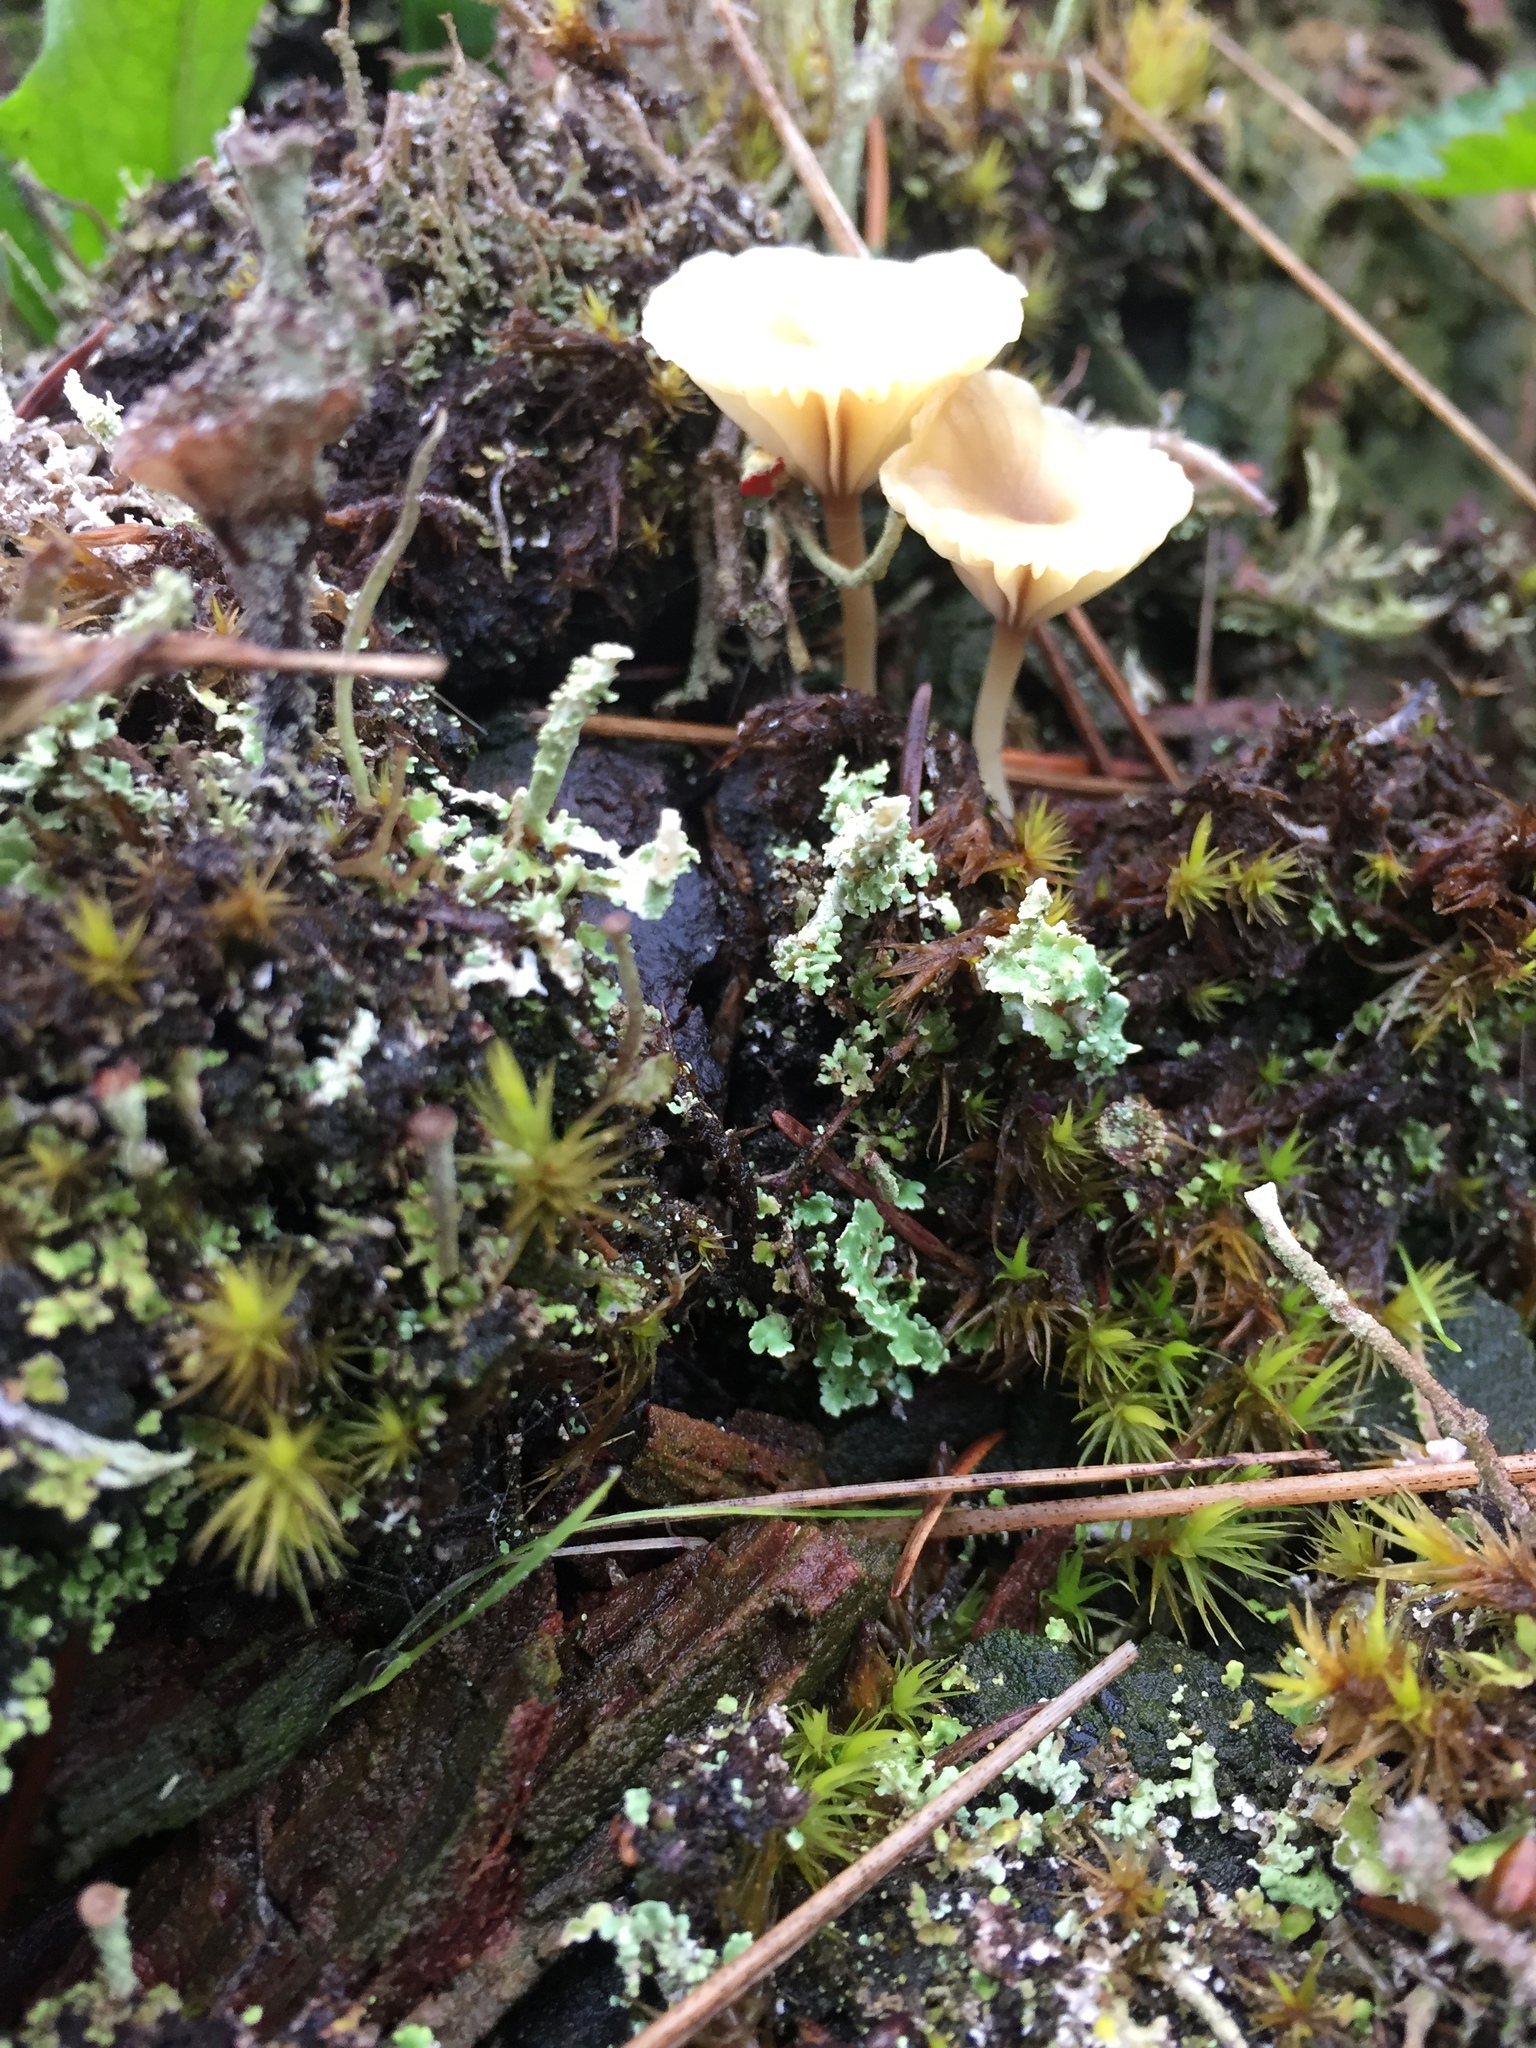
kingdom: Fungi
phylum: Basidiomycota
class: Agaricomycetes
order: Agaricales
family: Hygrophoraceae
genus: Lichenomphalia
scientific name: Lichenomphalia
